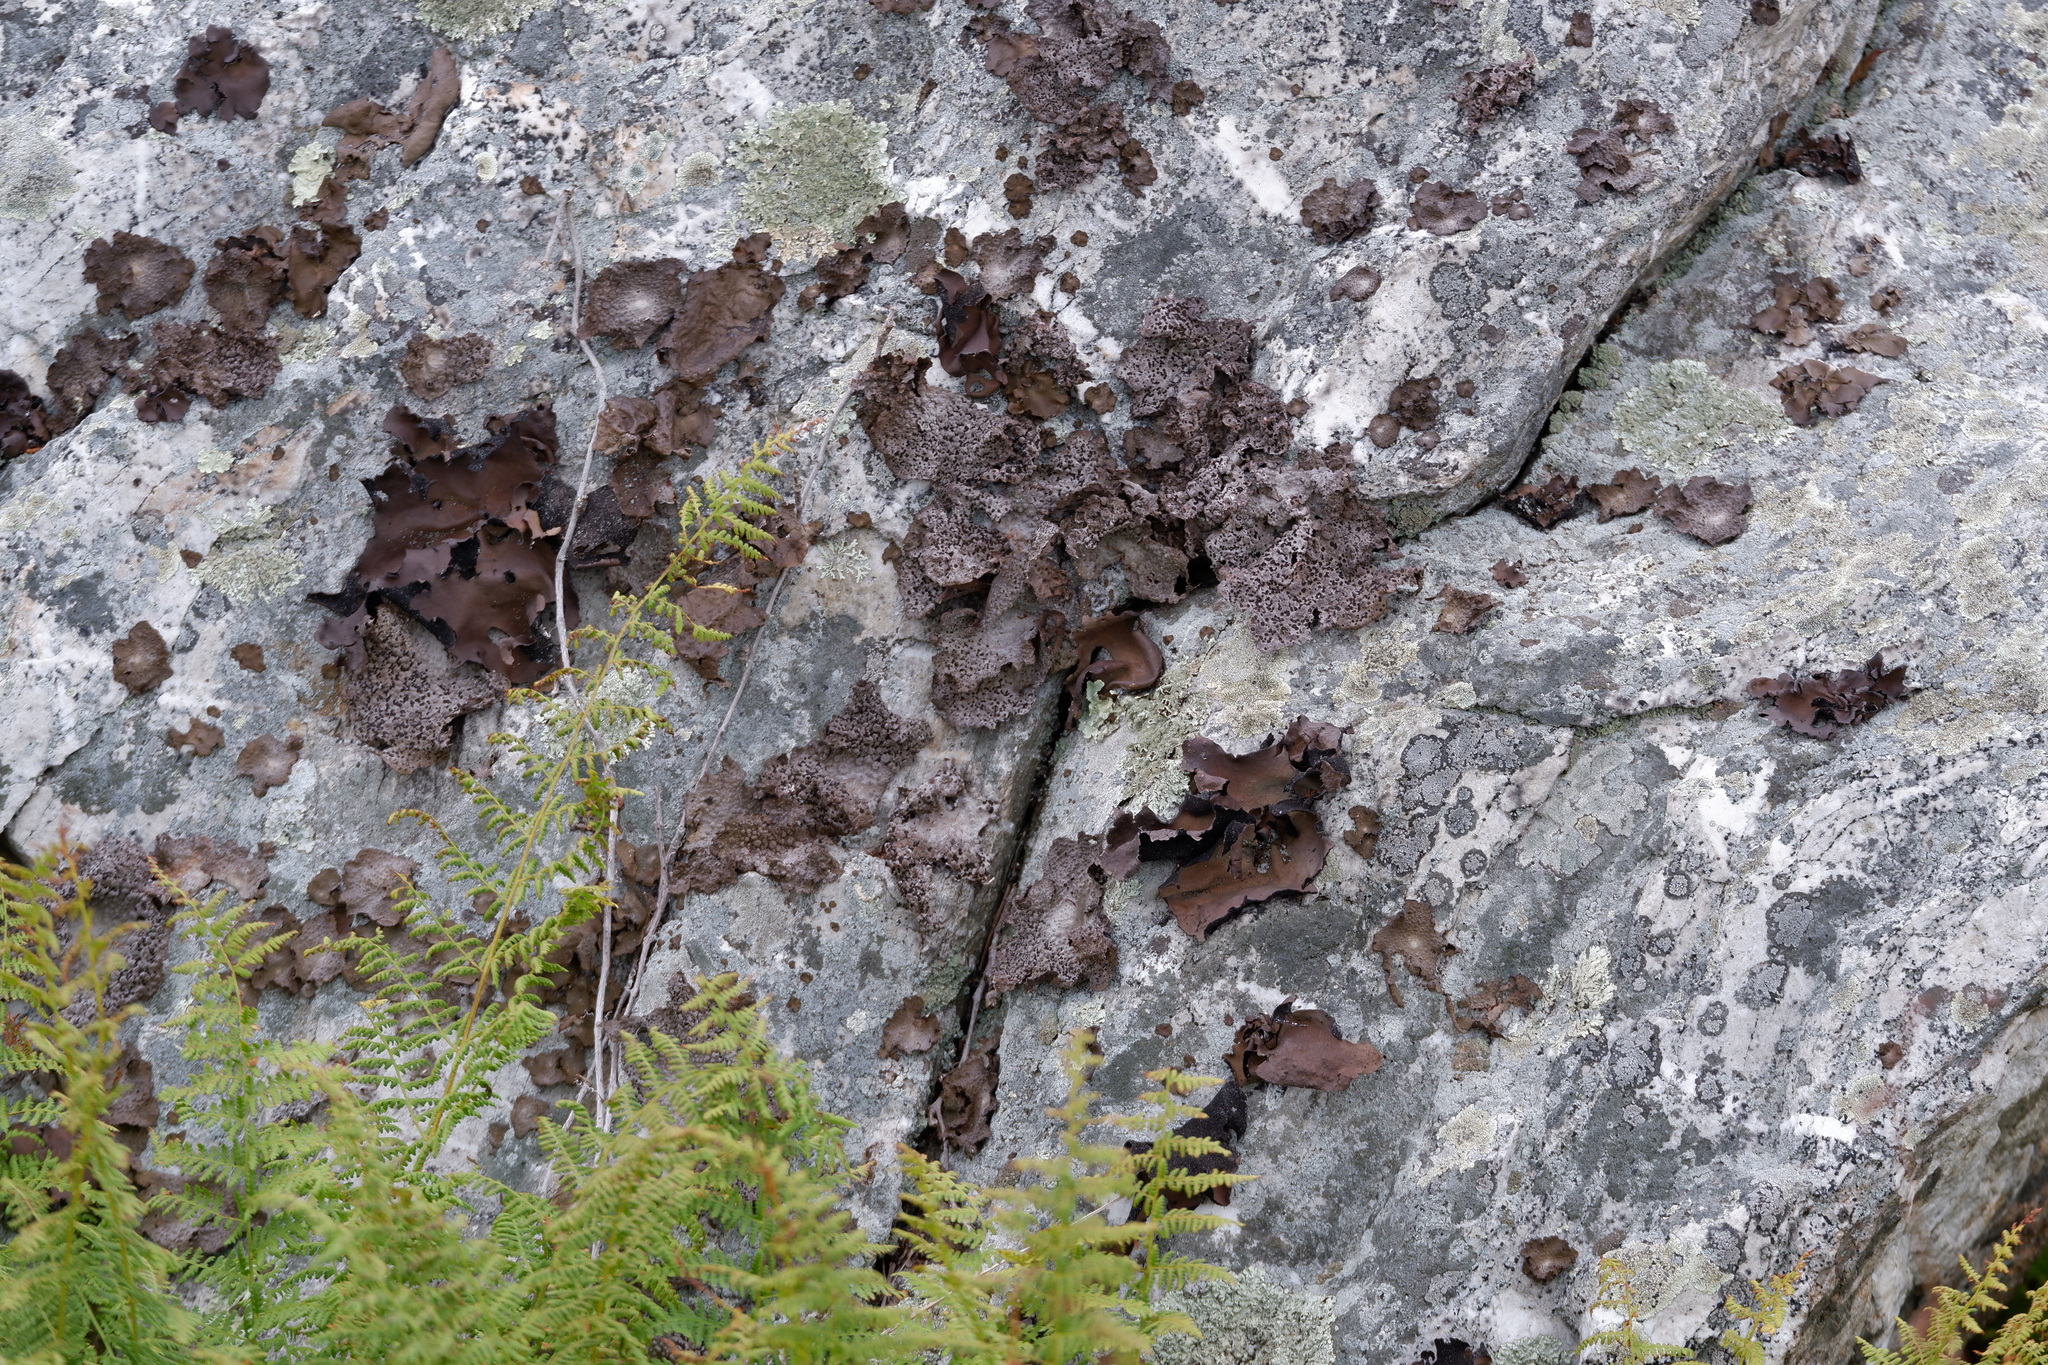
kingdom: Fungi
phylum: Ascomycota
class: Lecanoromycetes
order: Umbilicariales
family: Umbilicariaceae
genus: Umbilicaria
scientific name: Umbilicaria mammulata
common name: Smooth rock tripe
